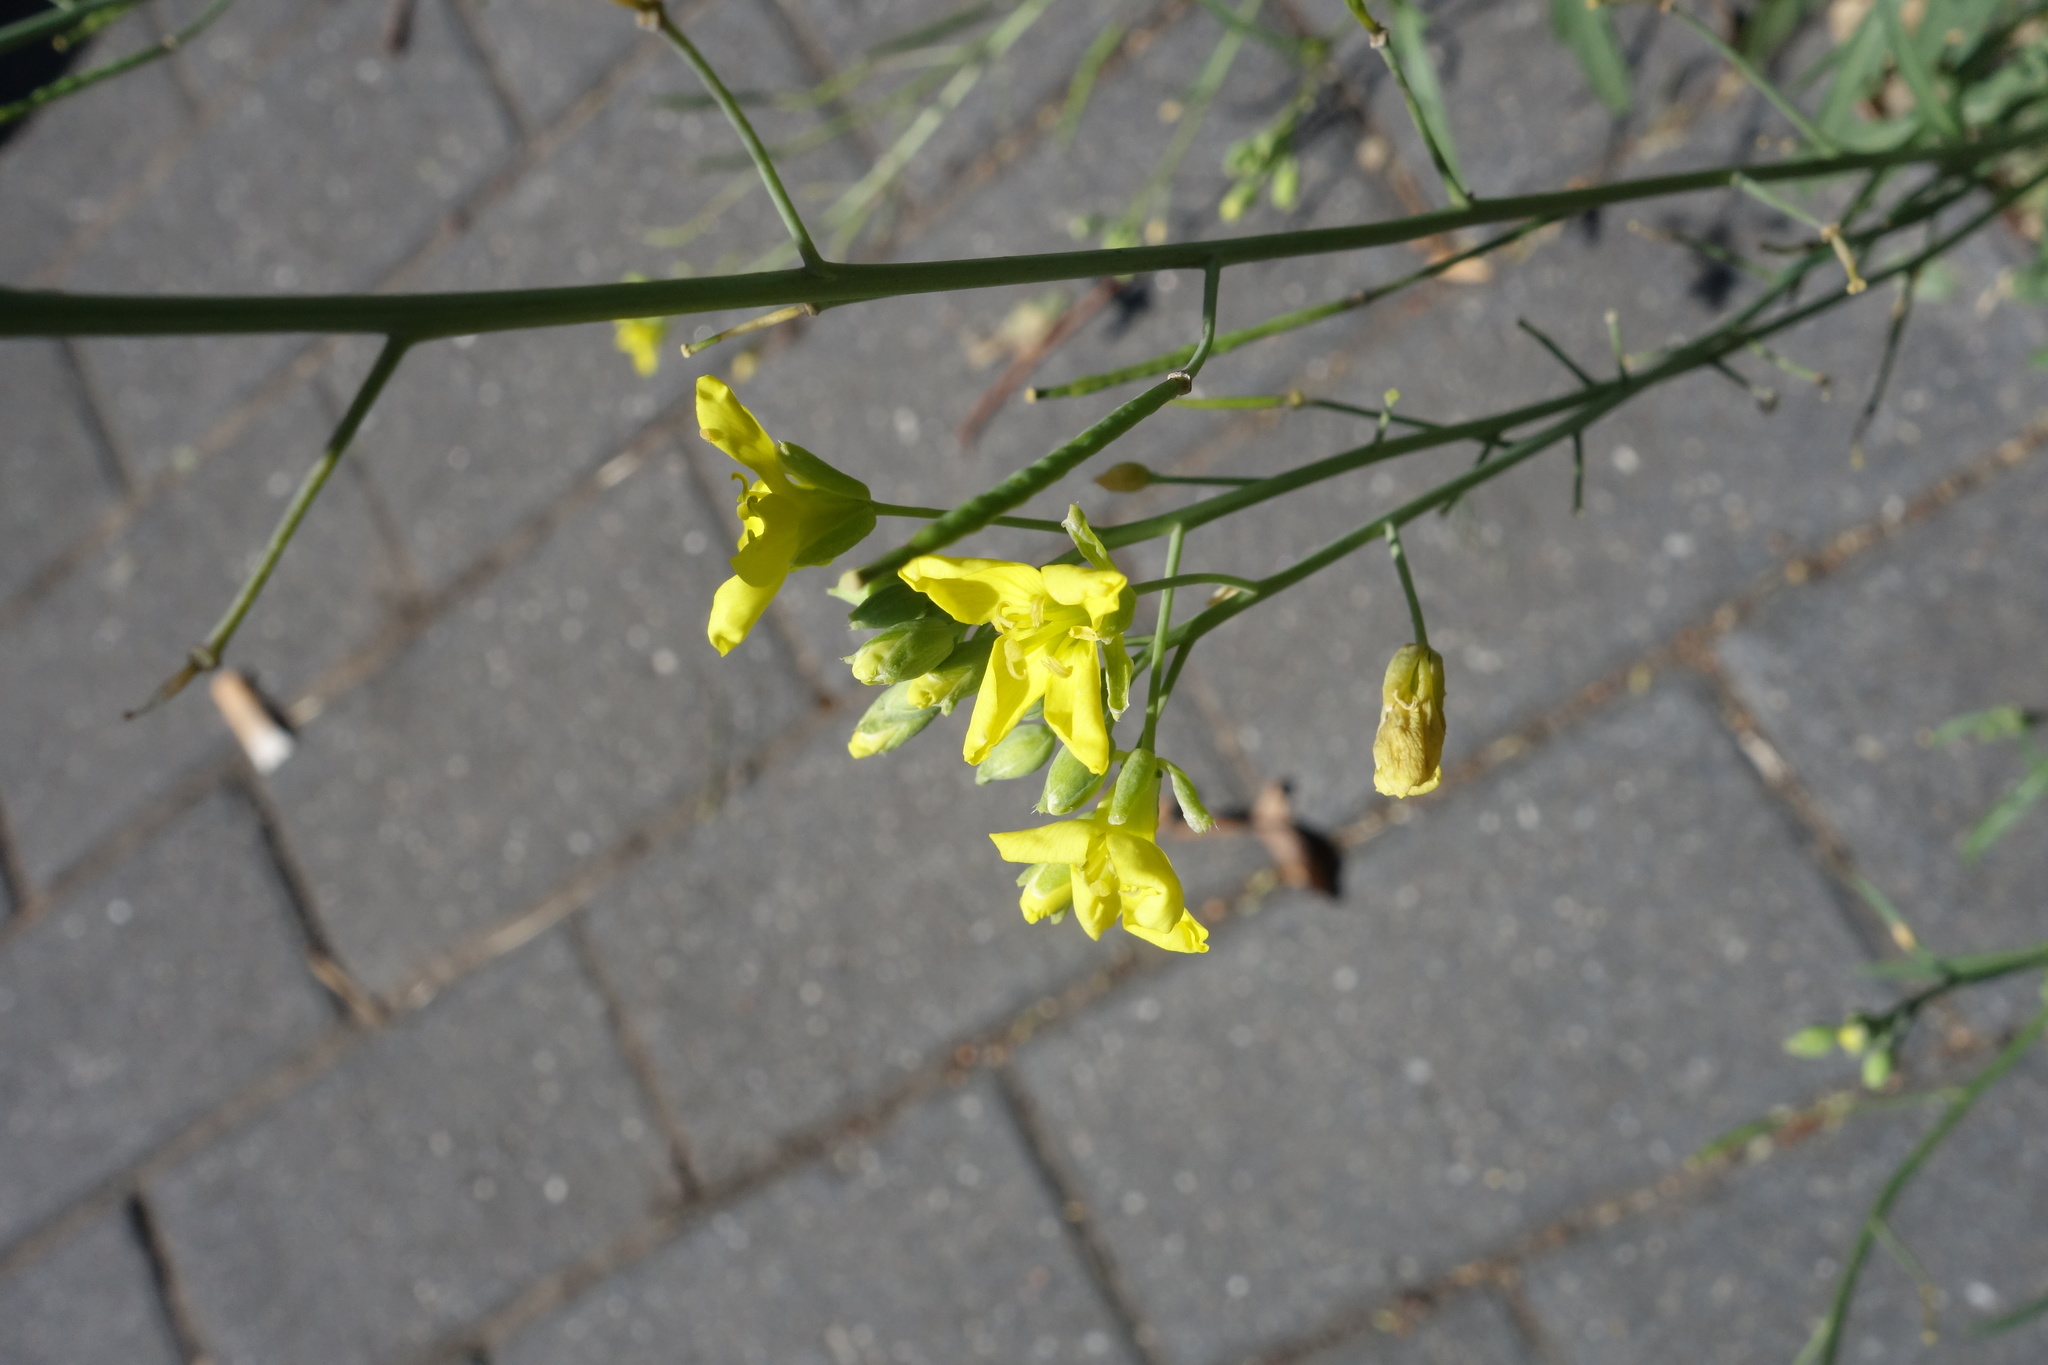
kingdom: Plantae
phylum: Tracheophyta
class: Magnoliopsida
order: Brassicales
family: Brassicaceae
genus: Diplotaxis
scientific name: Diplotaxis tenuifolia
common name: Perennial wall-rocket
